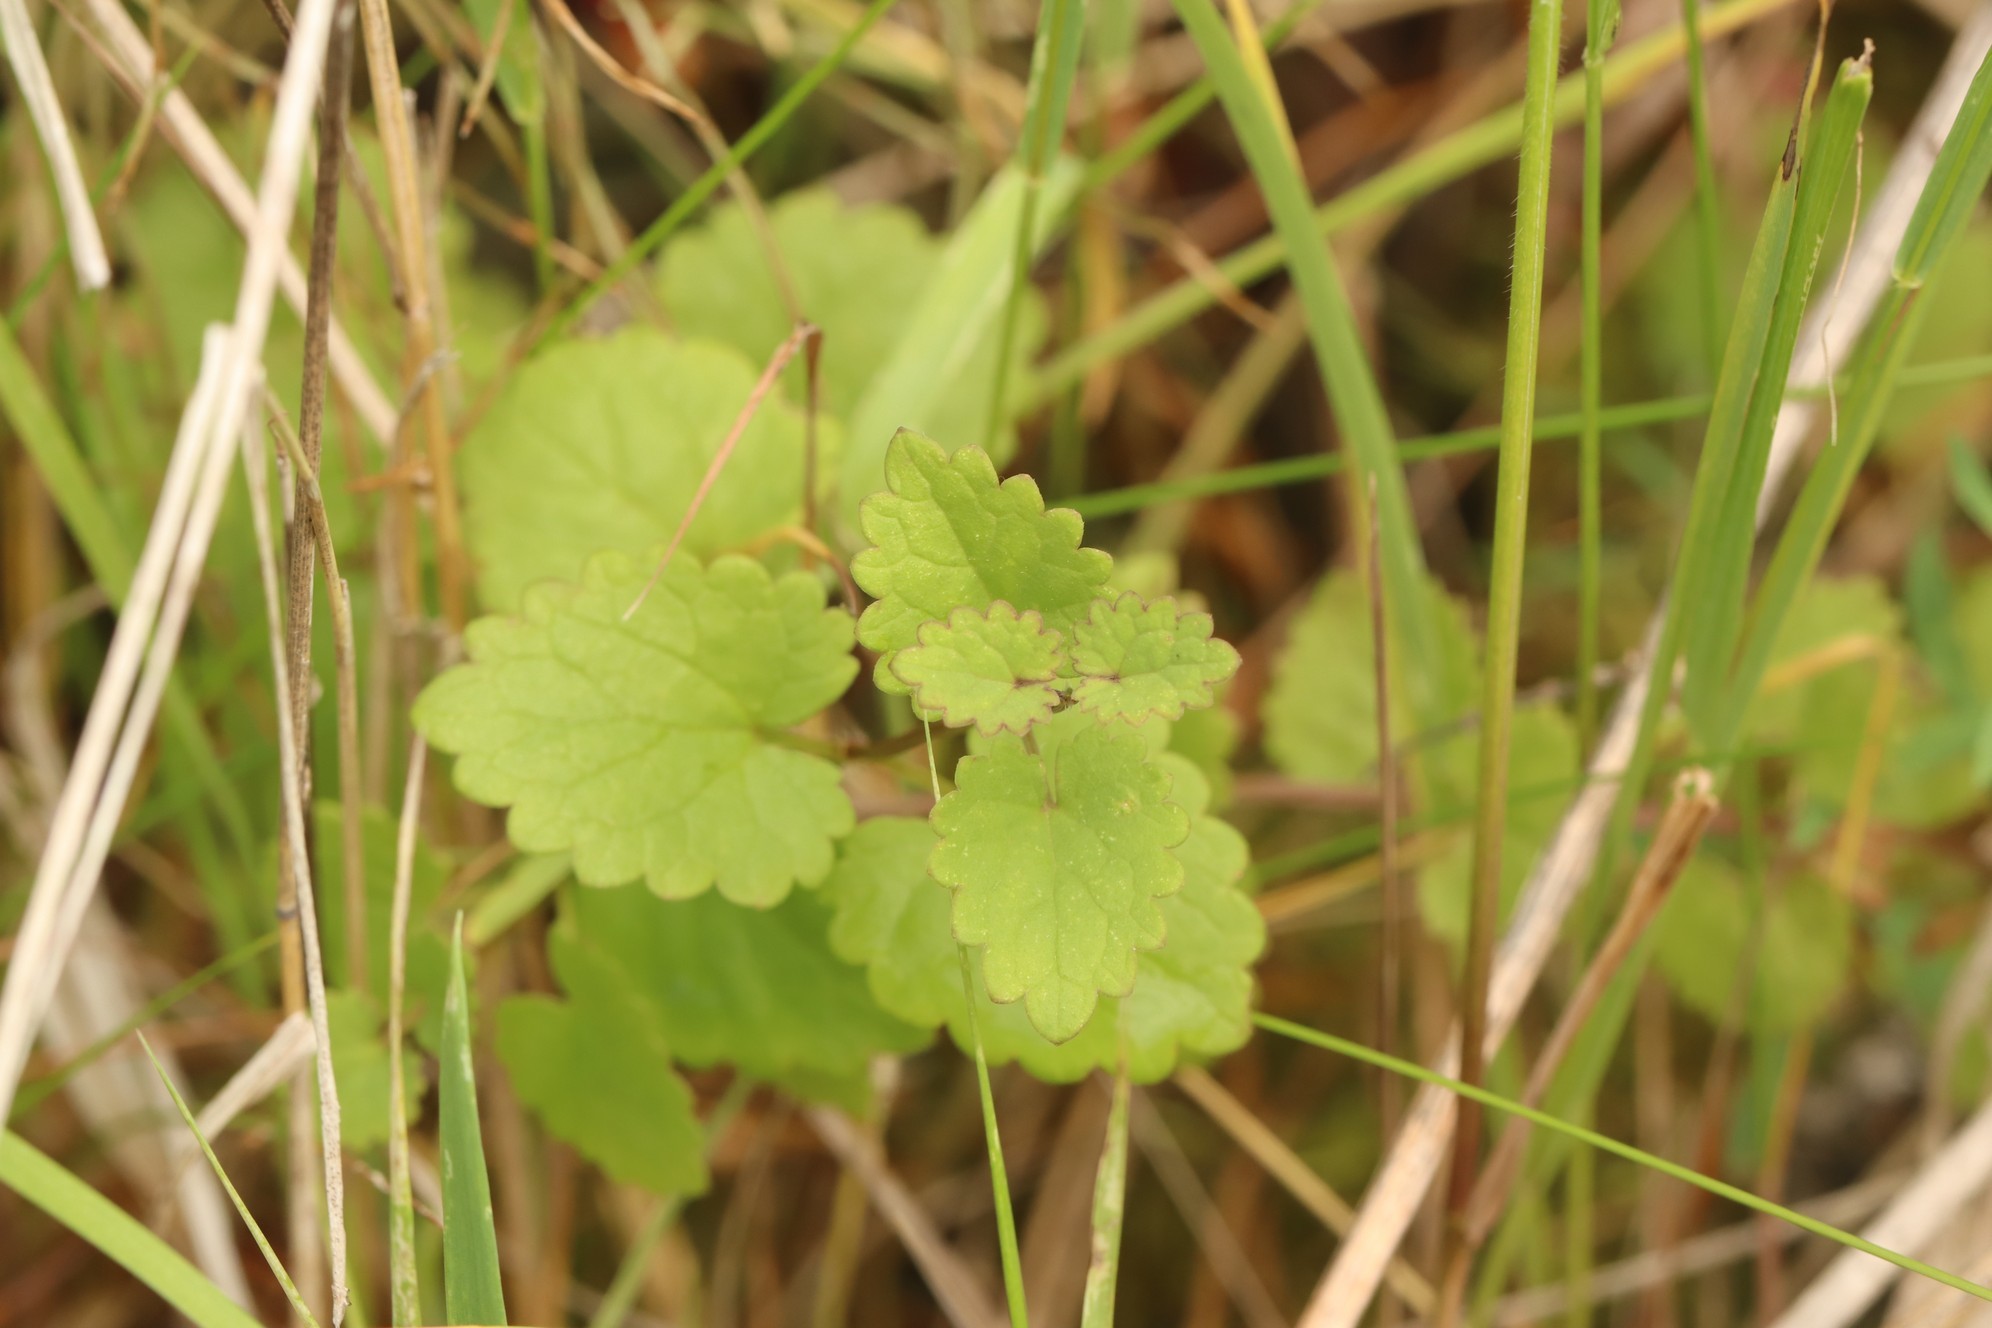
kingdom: Plantae
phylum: Tracheophyta
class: Magnoliopsida
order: Lamiales
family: Lamiaceae
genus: Glechoma
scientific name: Glechoma hederacea
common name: Ground ivy
